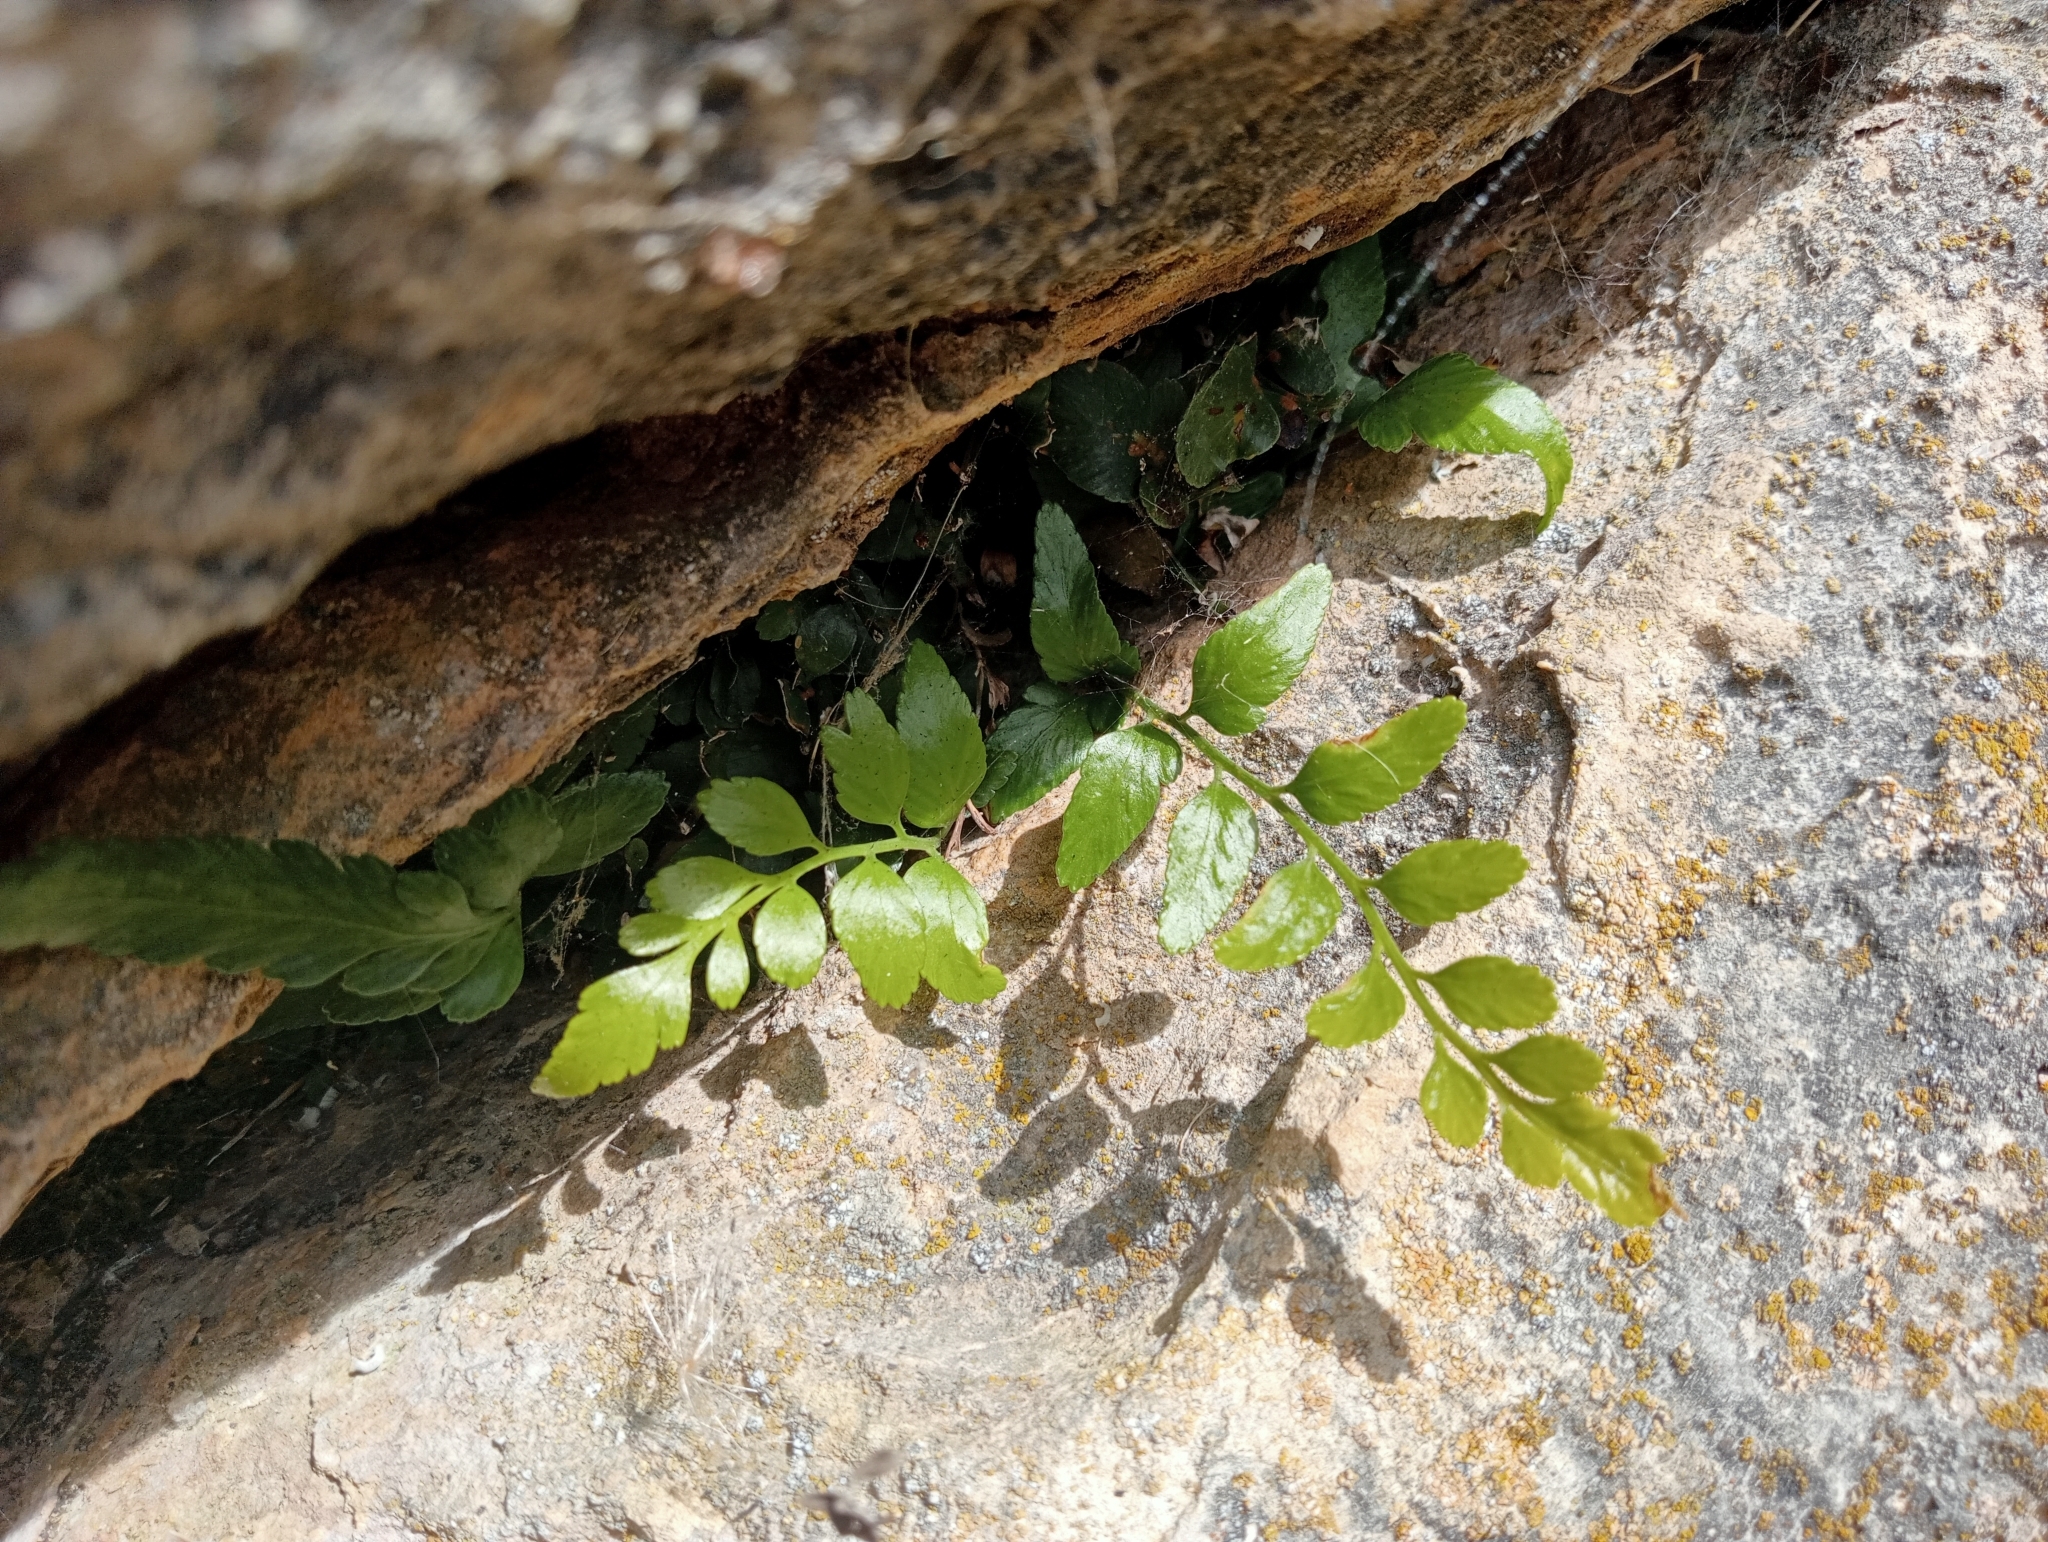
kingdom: Plantae
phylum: Tracheophyta
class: Polypodiopsida
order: Polypodiales
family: Aspleniaceae
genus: Asplenium
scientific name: Asplenium lyallii
